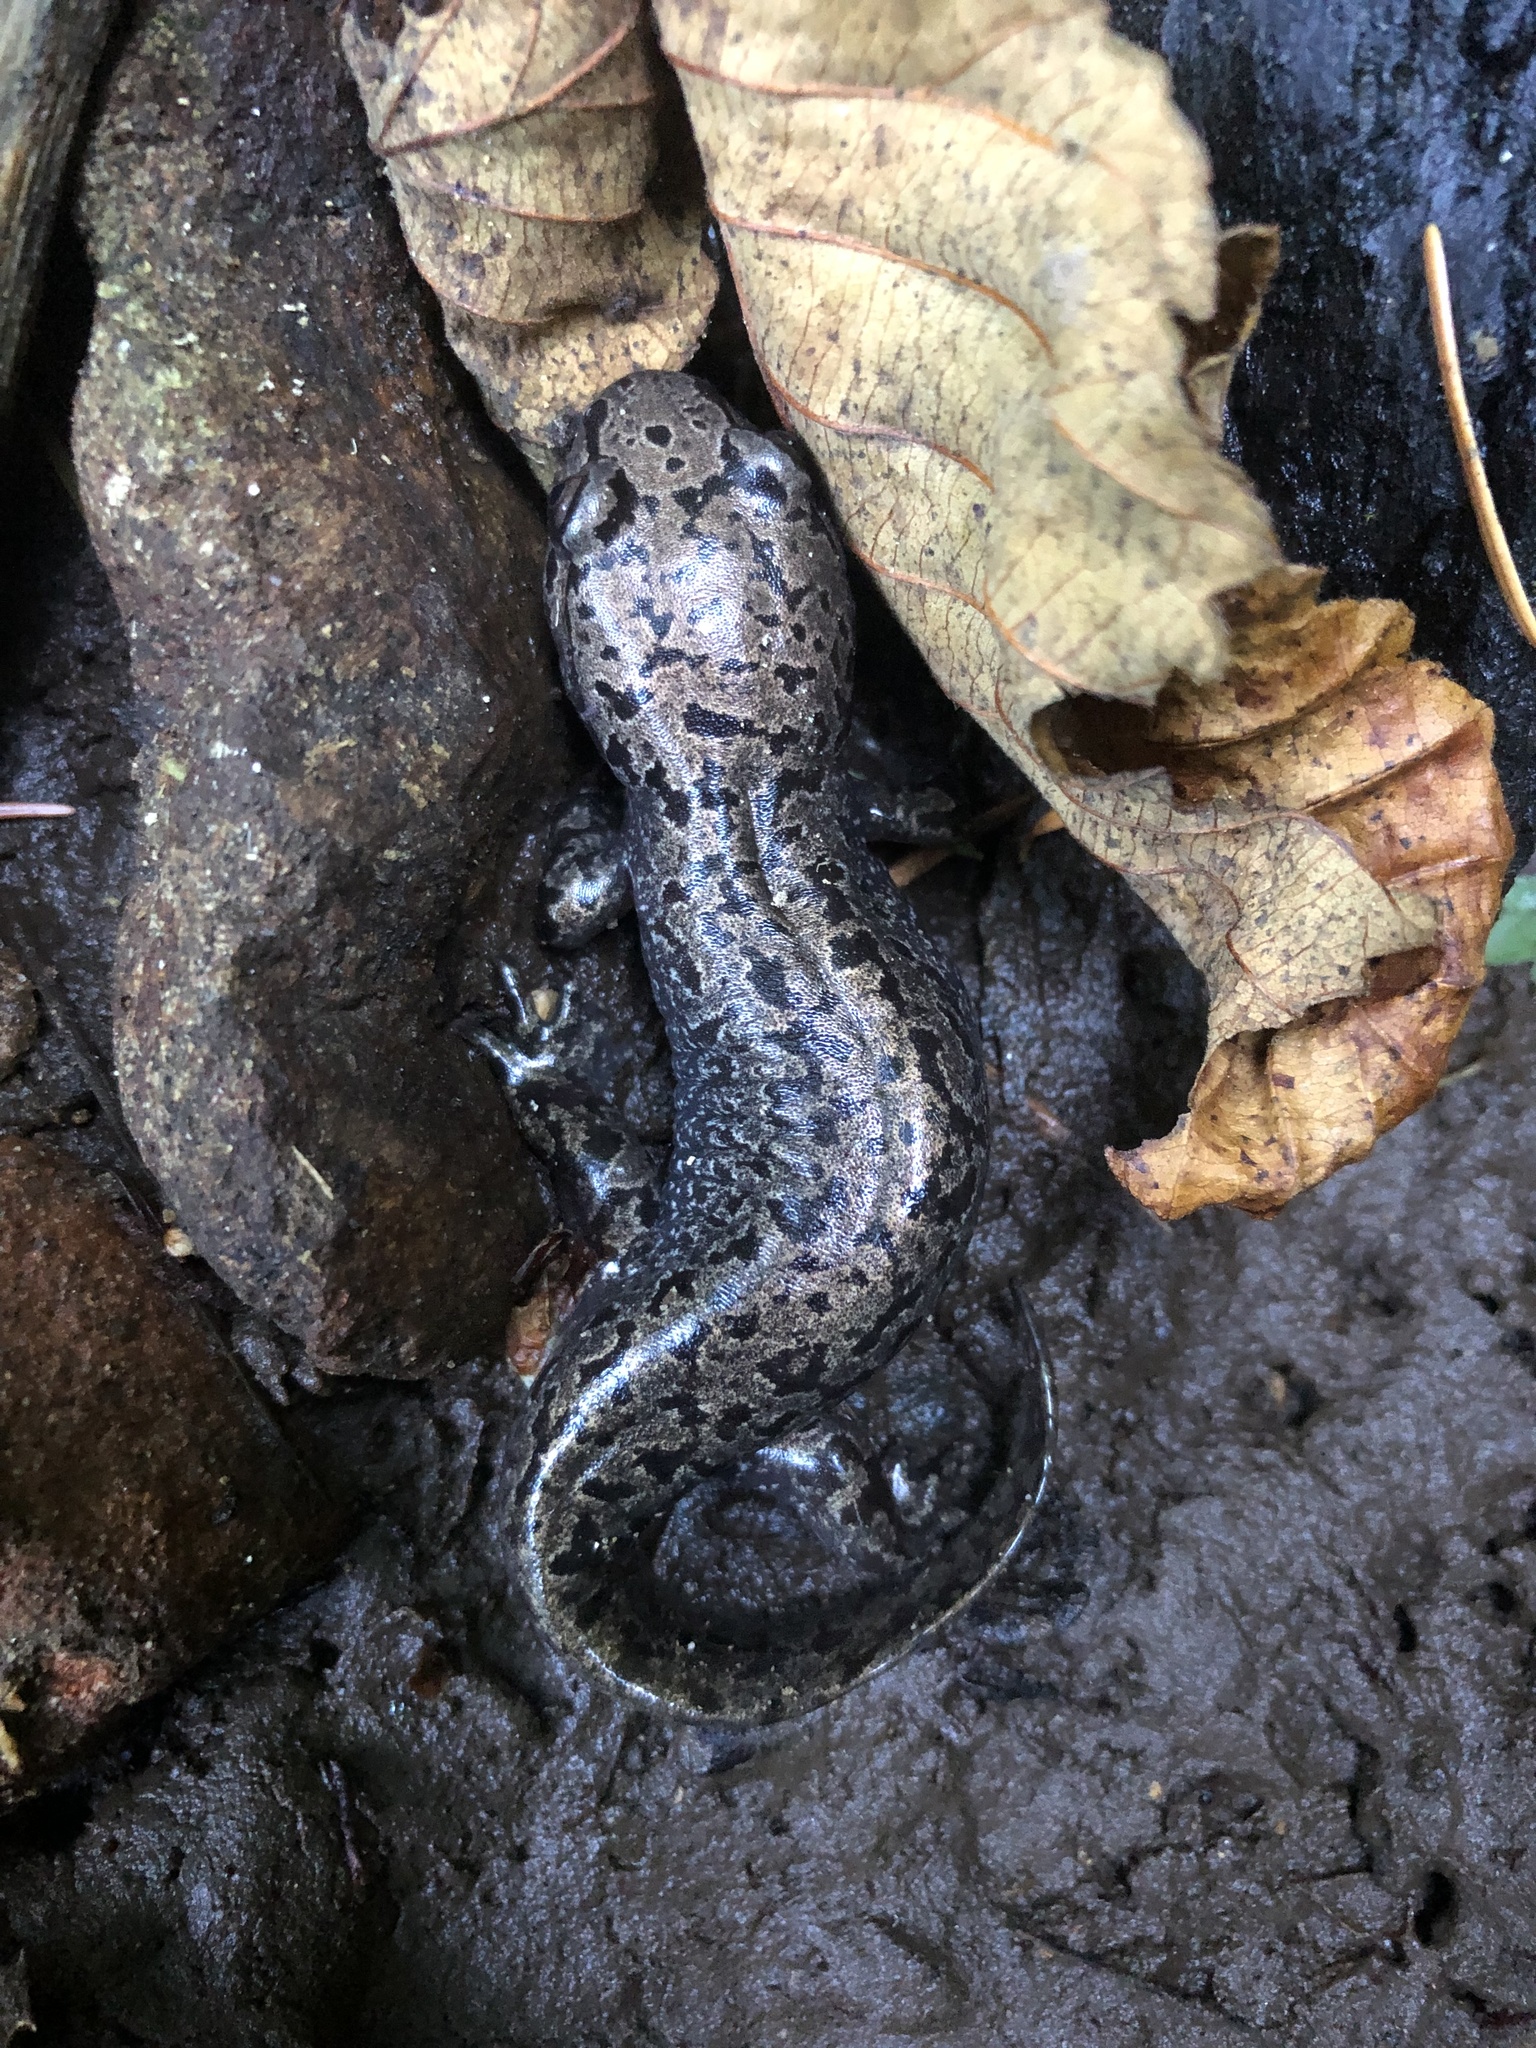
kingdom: Animalia
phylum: Chordata
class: Amphibia
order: Caudata
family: Ambystomatidae
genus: Dicamptodon
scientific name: Dicamptodon tenebrosus
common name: Coastal giant salamander
